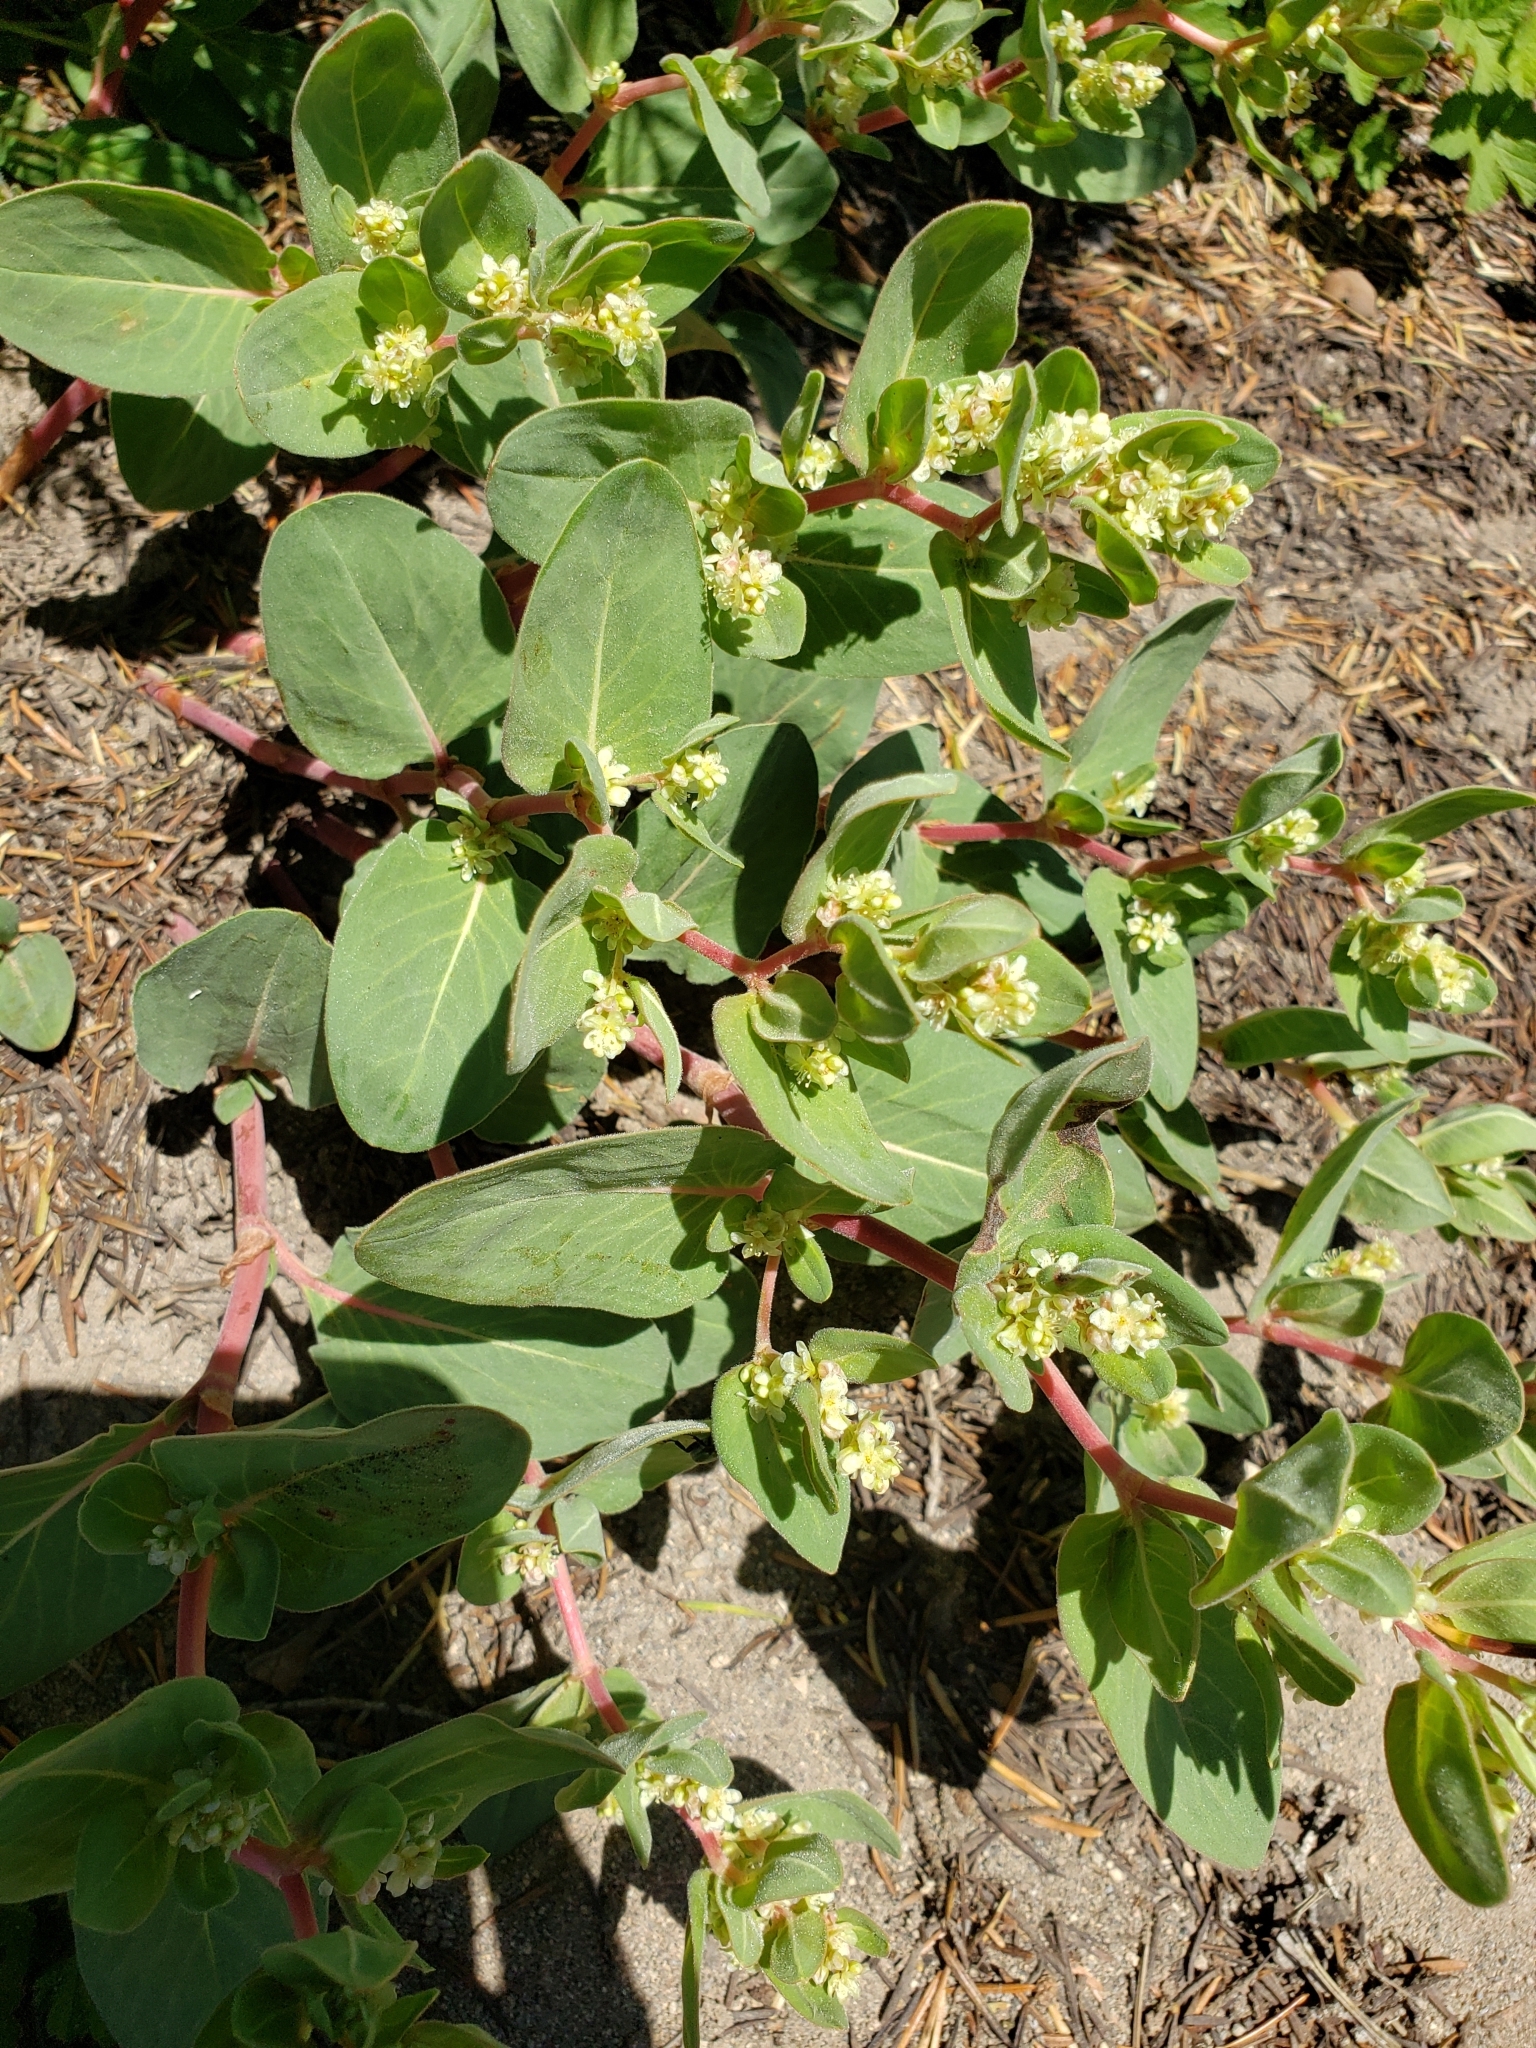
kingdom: Plantae
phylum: Tracheophyta
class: Magnoliopsida
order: Caryophyllales
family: Polygonaceae
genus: Koenigia
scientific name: Koenigia davisiae
